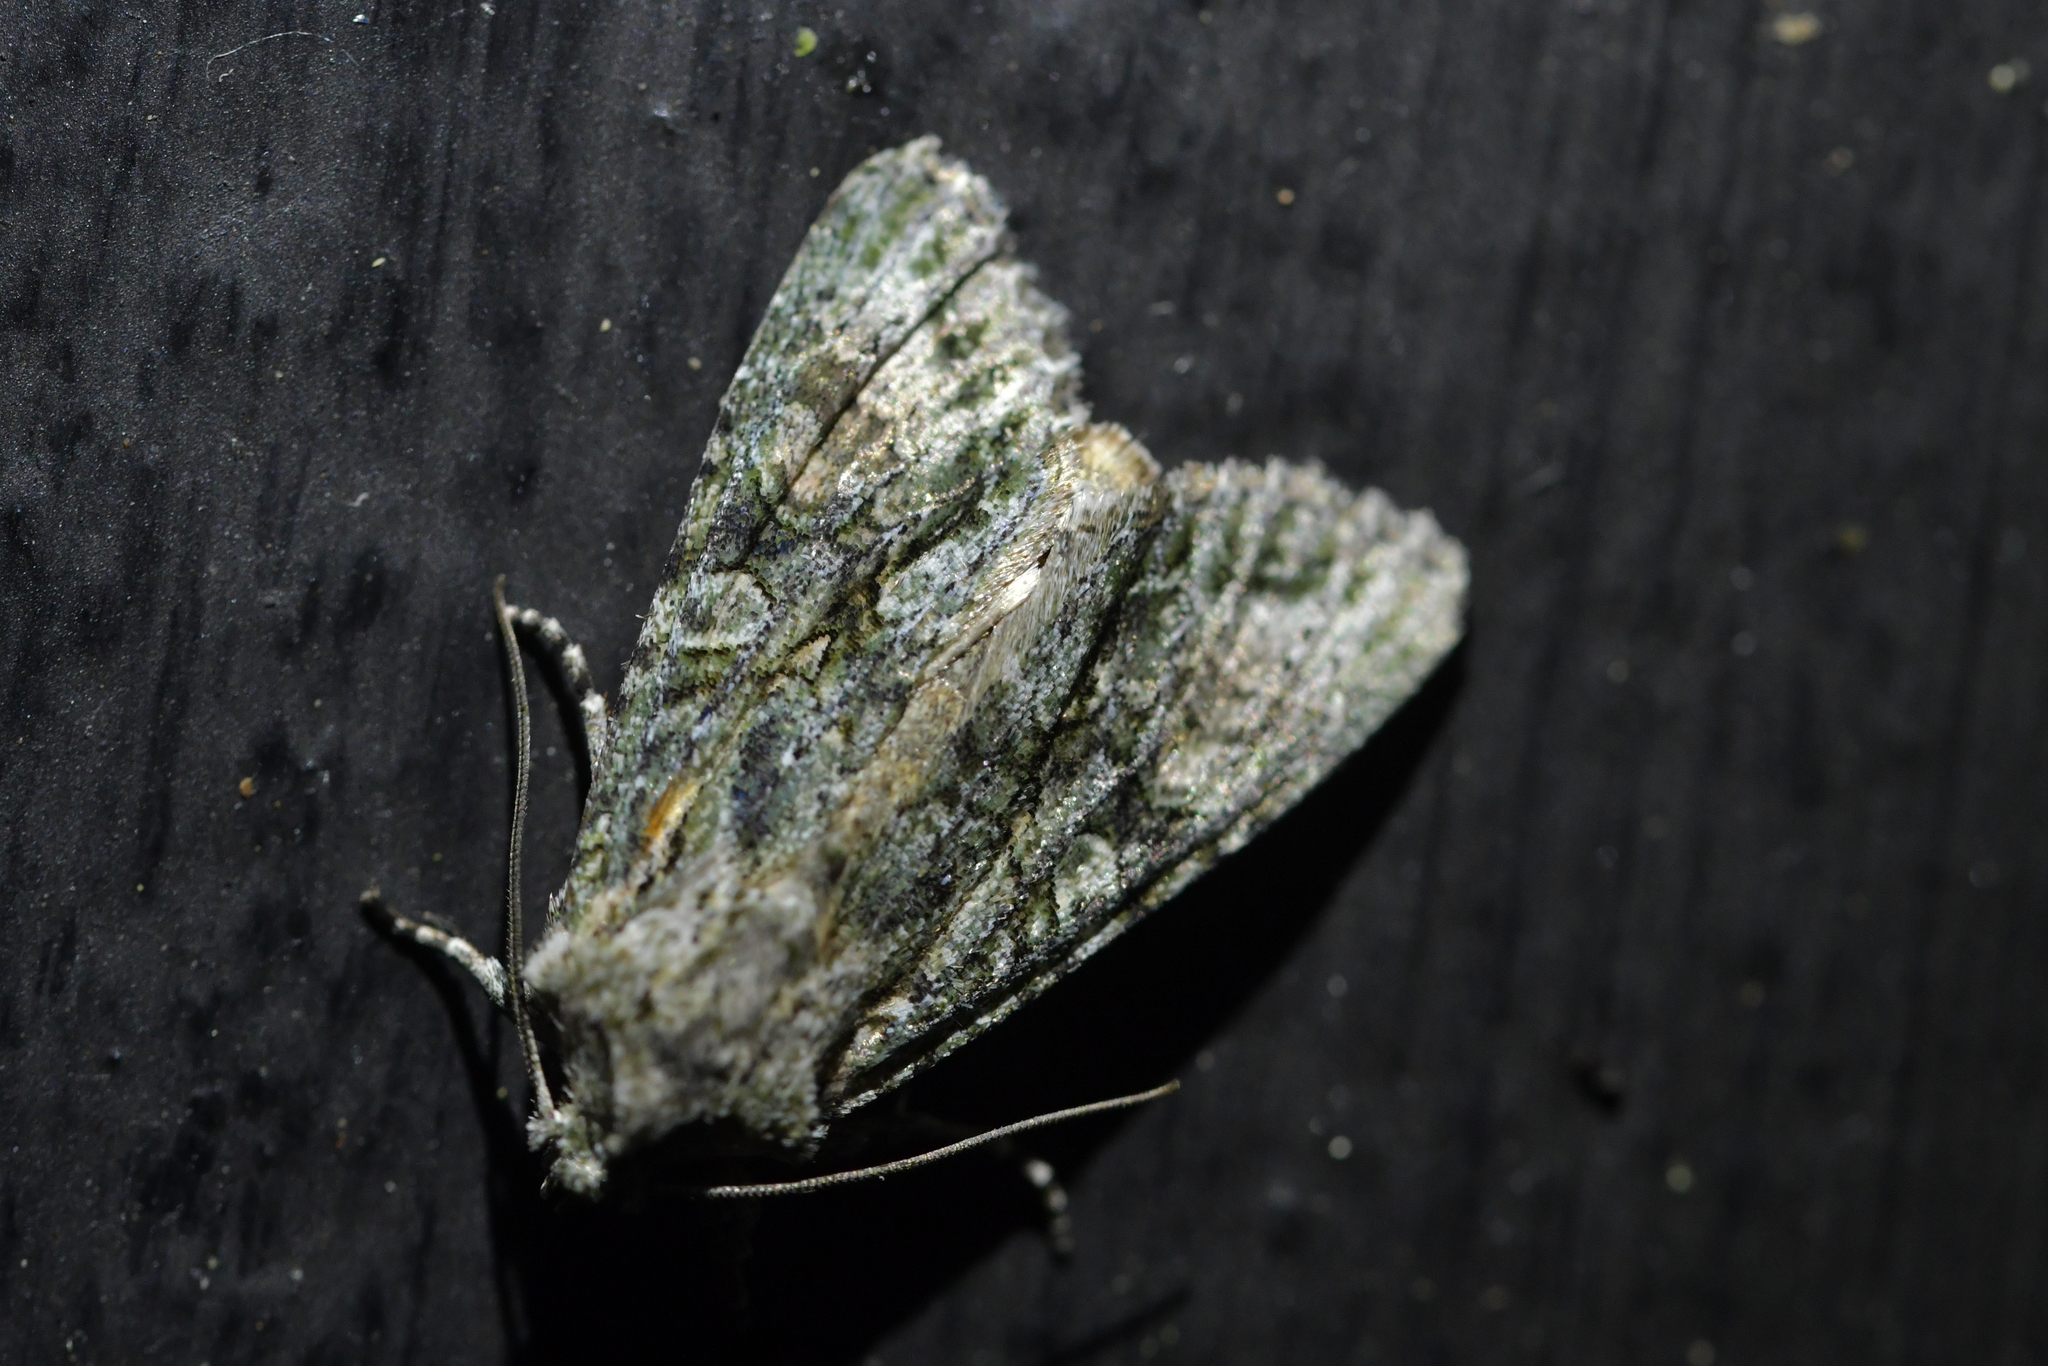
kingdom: Animalia
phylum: Arthropoda
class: Insecta
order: Lepidoptera
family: Noctuidae
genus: Ichneutica
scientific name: Ichneutica mutans
